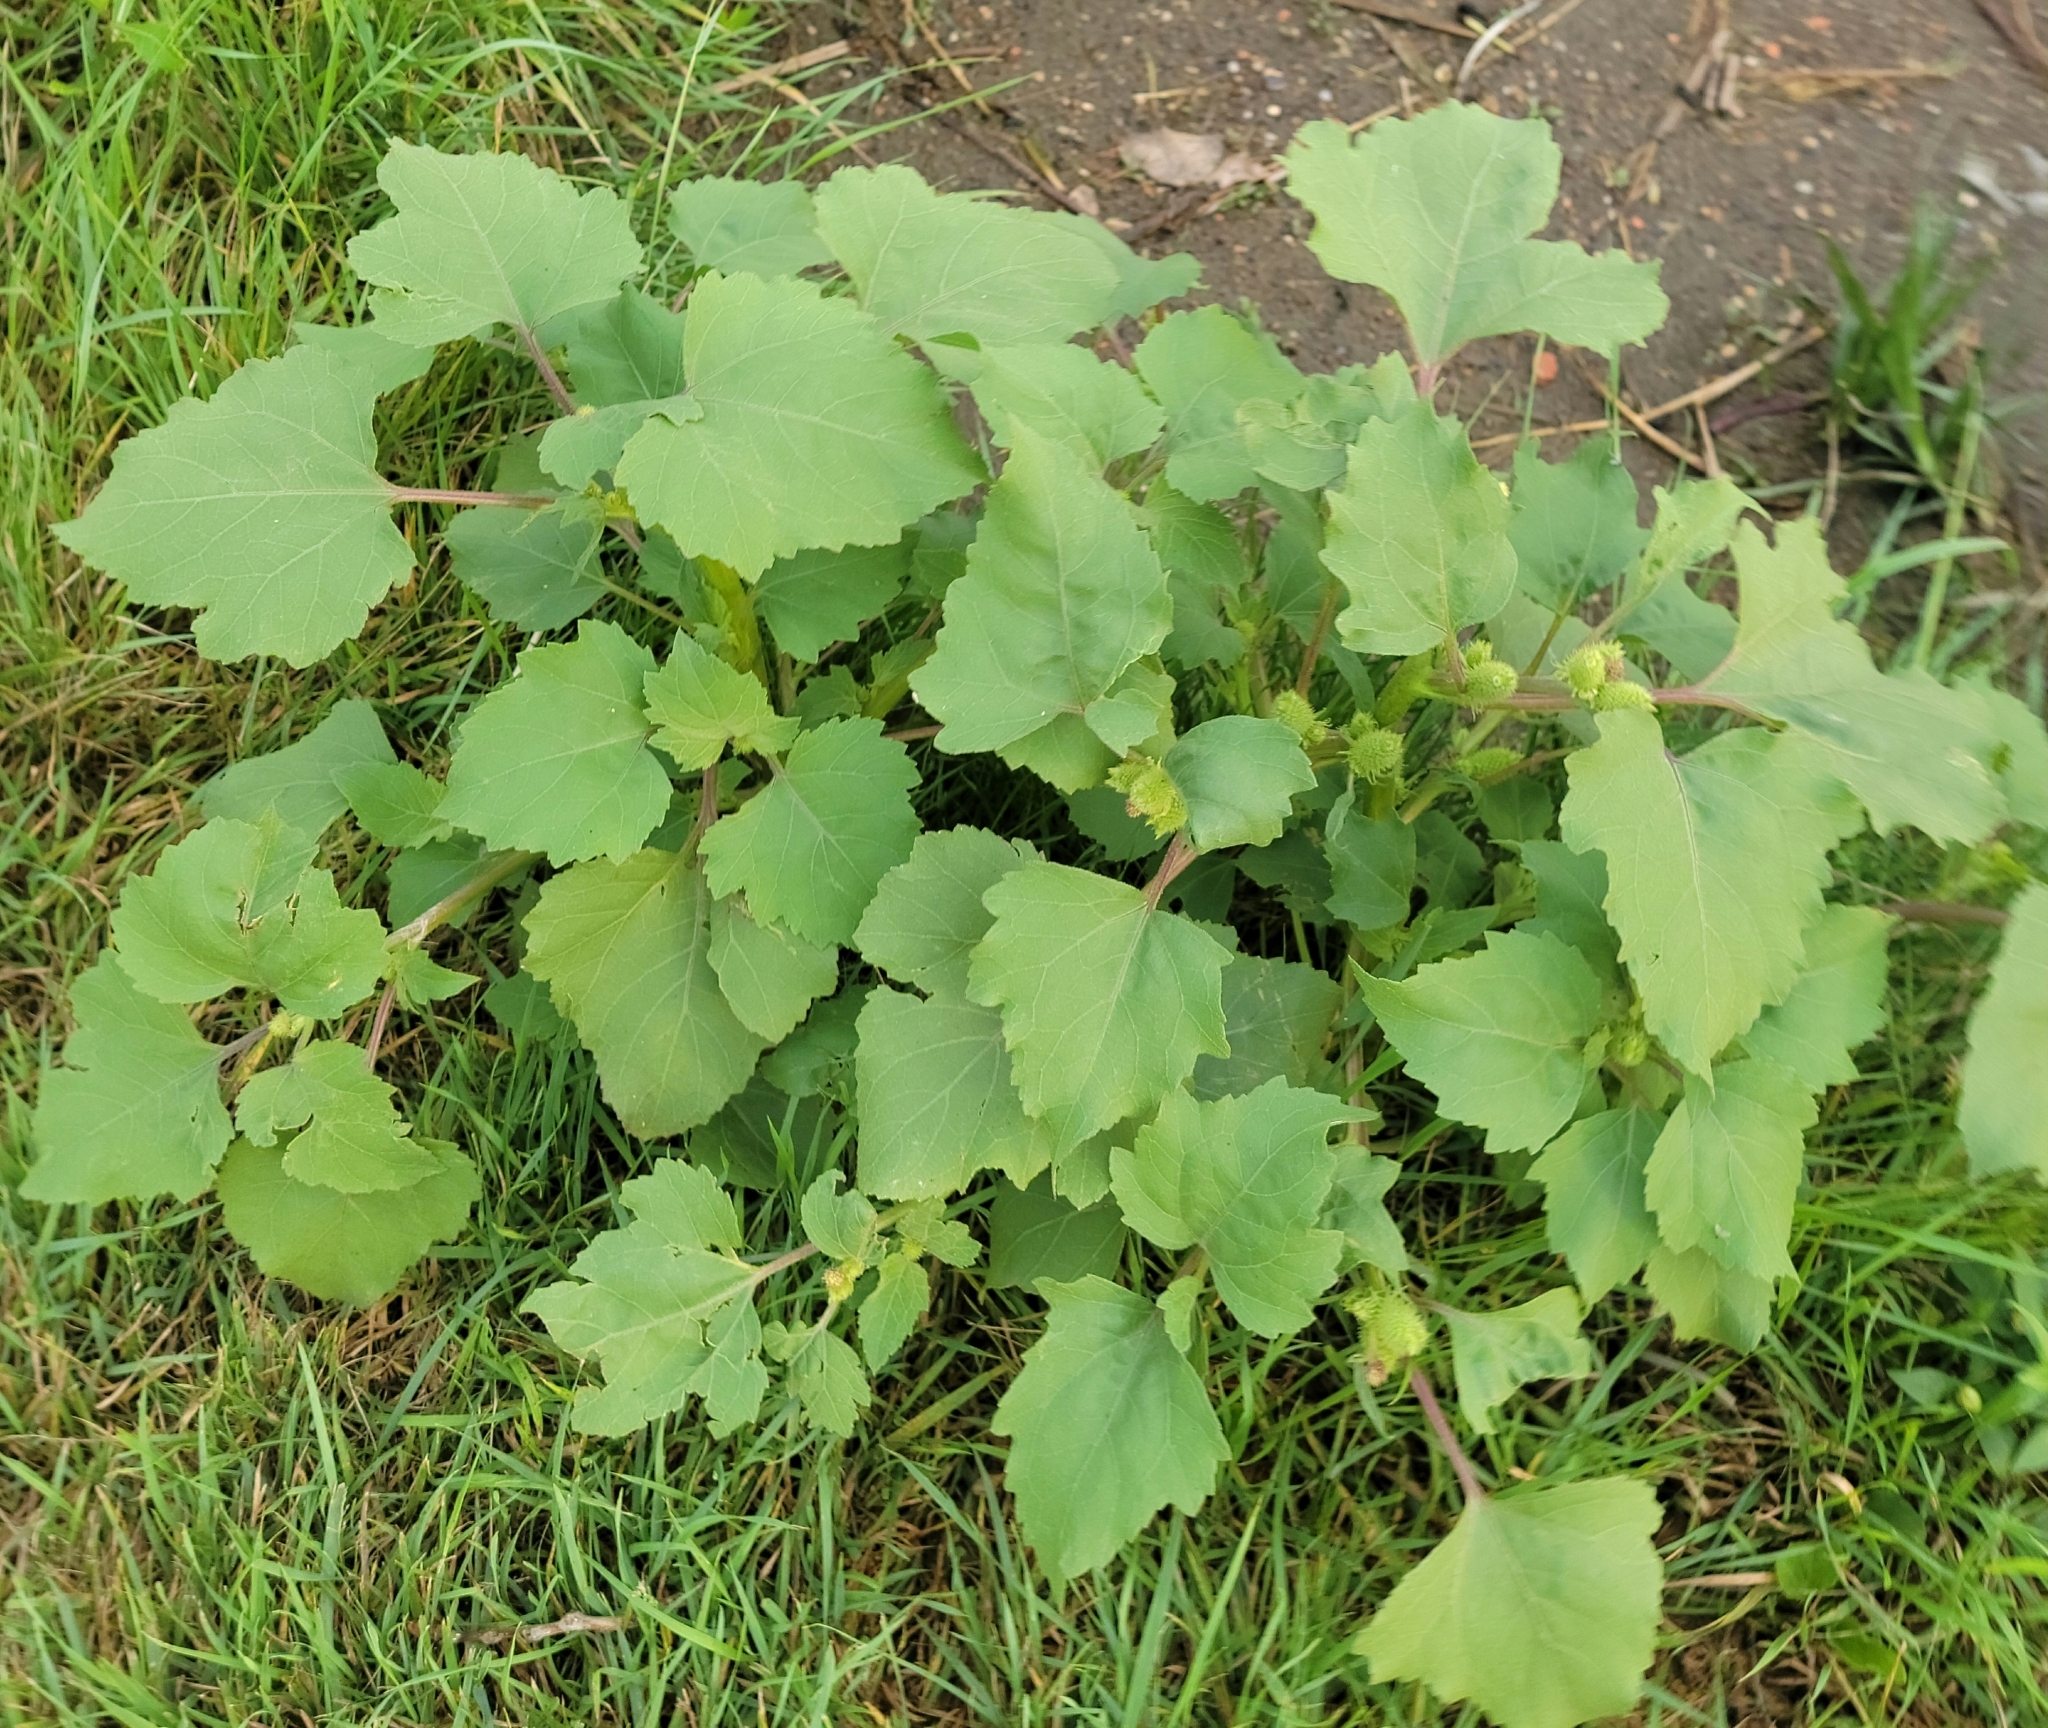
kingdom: Plantae
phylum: Tracheophyta
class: Magnoliopsida
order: Asterales
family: Asteraceae
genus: Xanthium
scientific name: Xanthium strumarium
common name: Rough cocklebur
